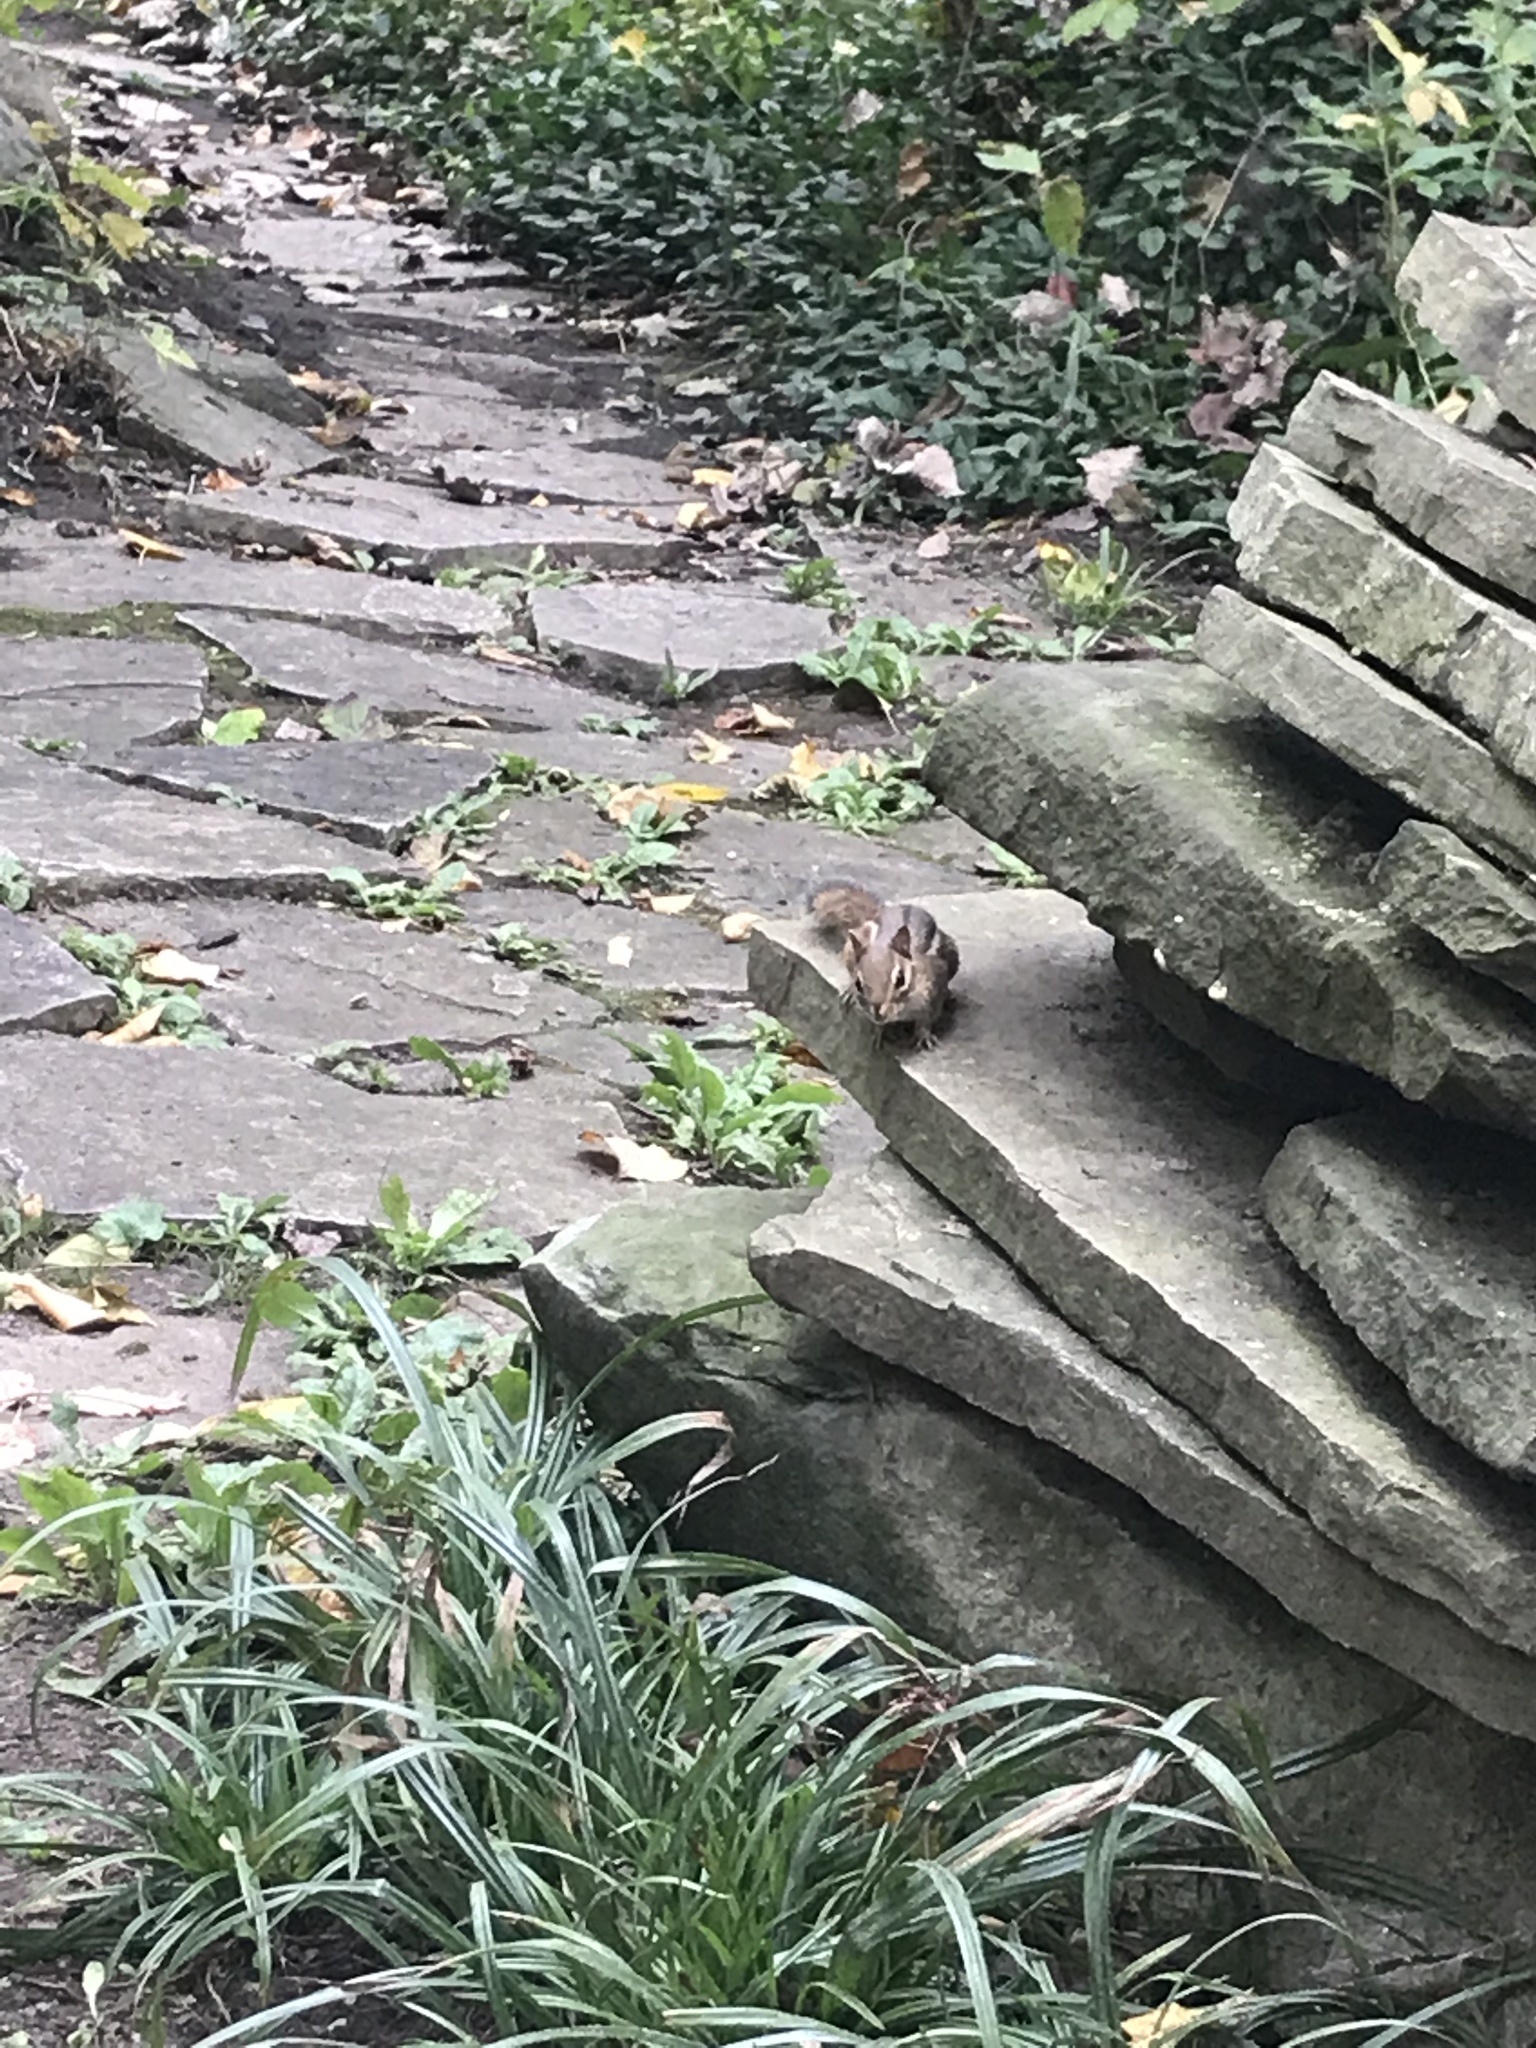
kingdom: Animalia
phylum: Chordata
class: Mammalia
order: Rodentia
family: Sciuridae
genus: Tamias
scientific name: Tamias striatus
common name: Eastern chipmunk
